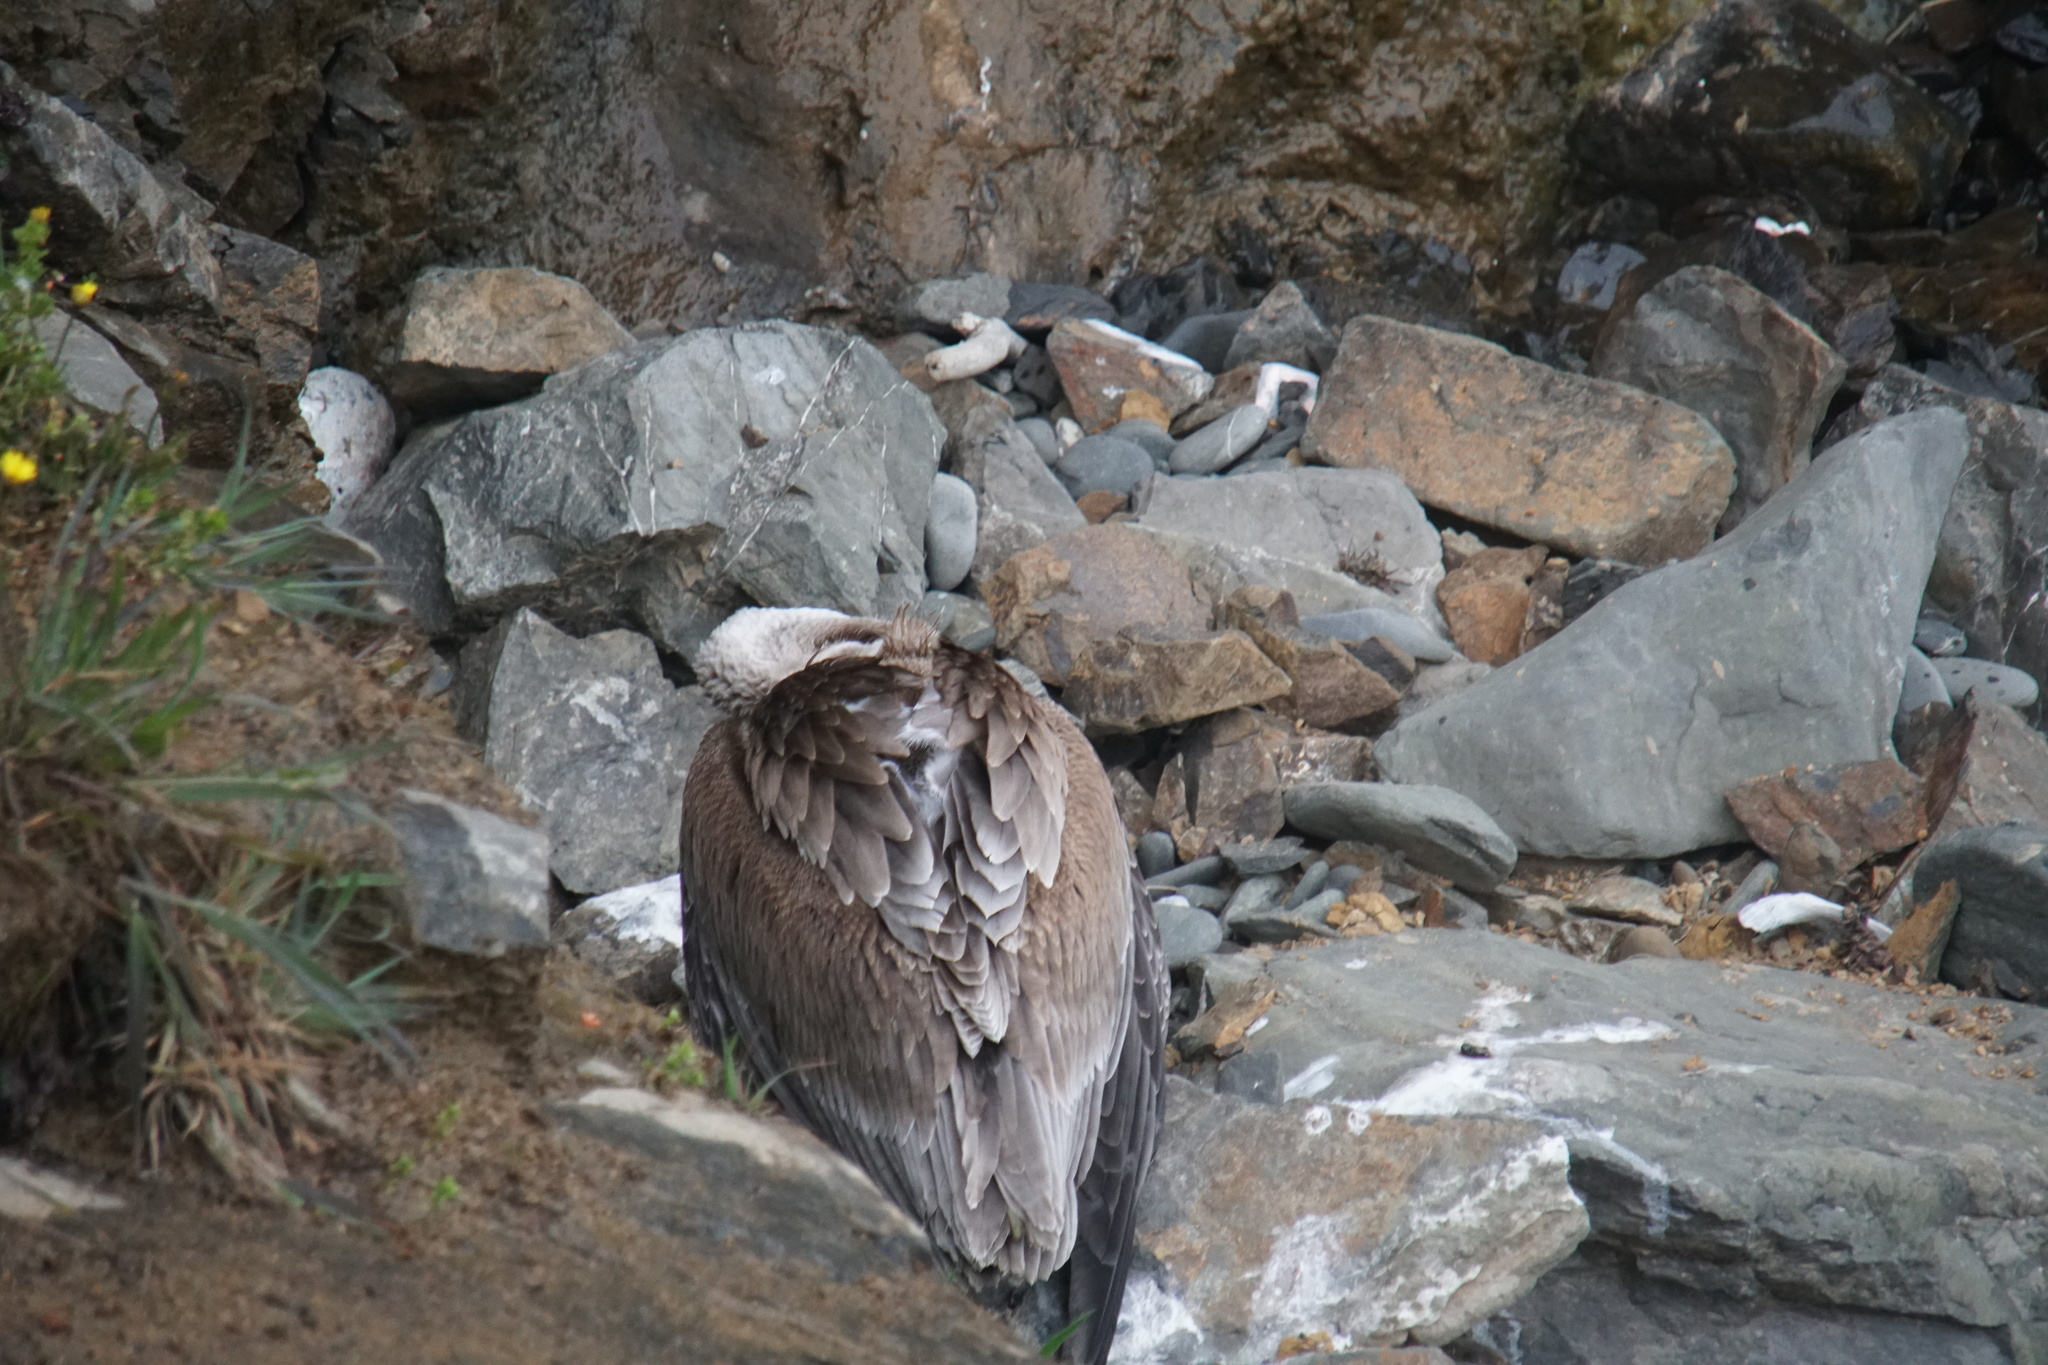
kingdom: Animalia
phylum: Chordata
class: Aves
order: Pelecaniformes
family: Pelecanidae
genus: Pelecanus
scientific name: Pelecanus occidentalis
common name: Brown pelican
